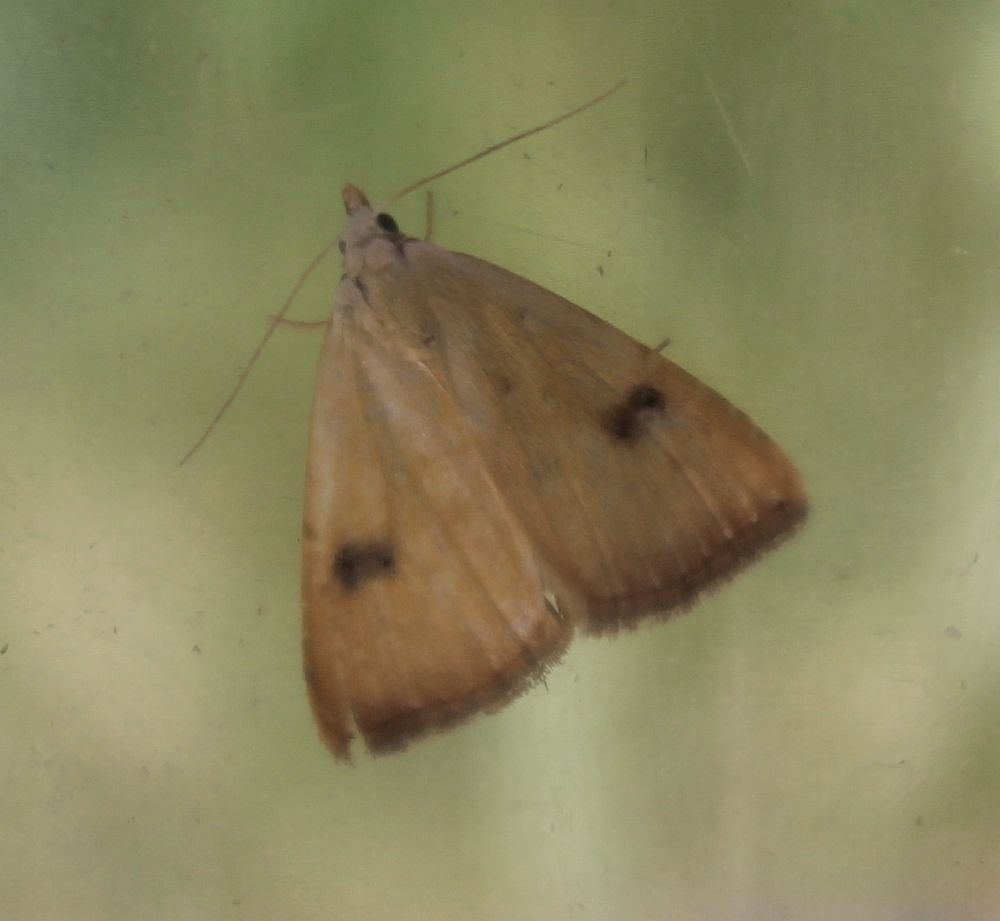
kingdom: Animalia
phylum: Arthropoda
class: Insecta
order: Lepidoptera
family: Erebidae
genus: Rivula
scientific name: Rivula sericealis
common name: Straw dot
